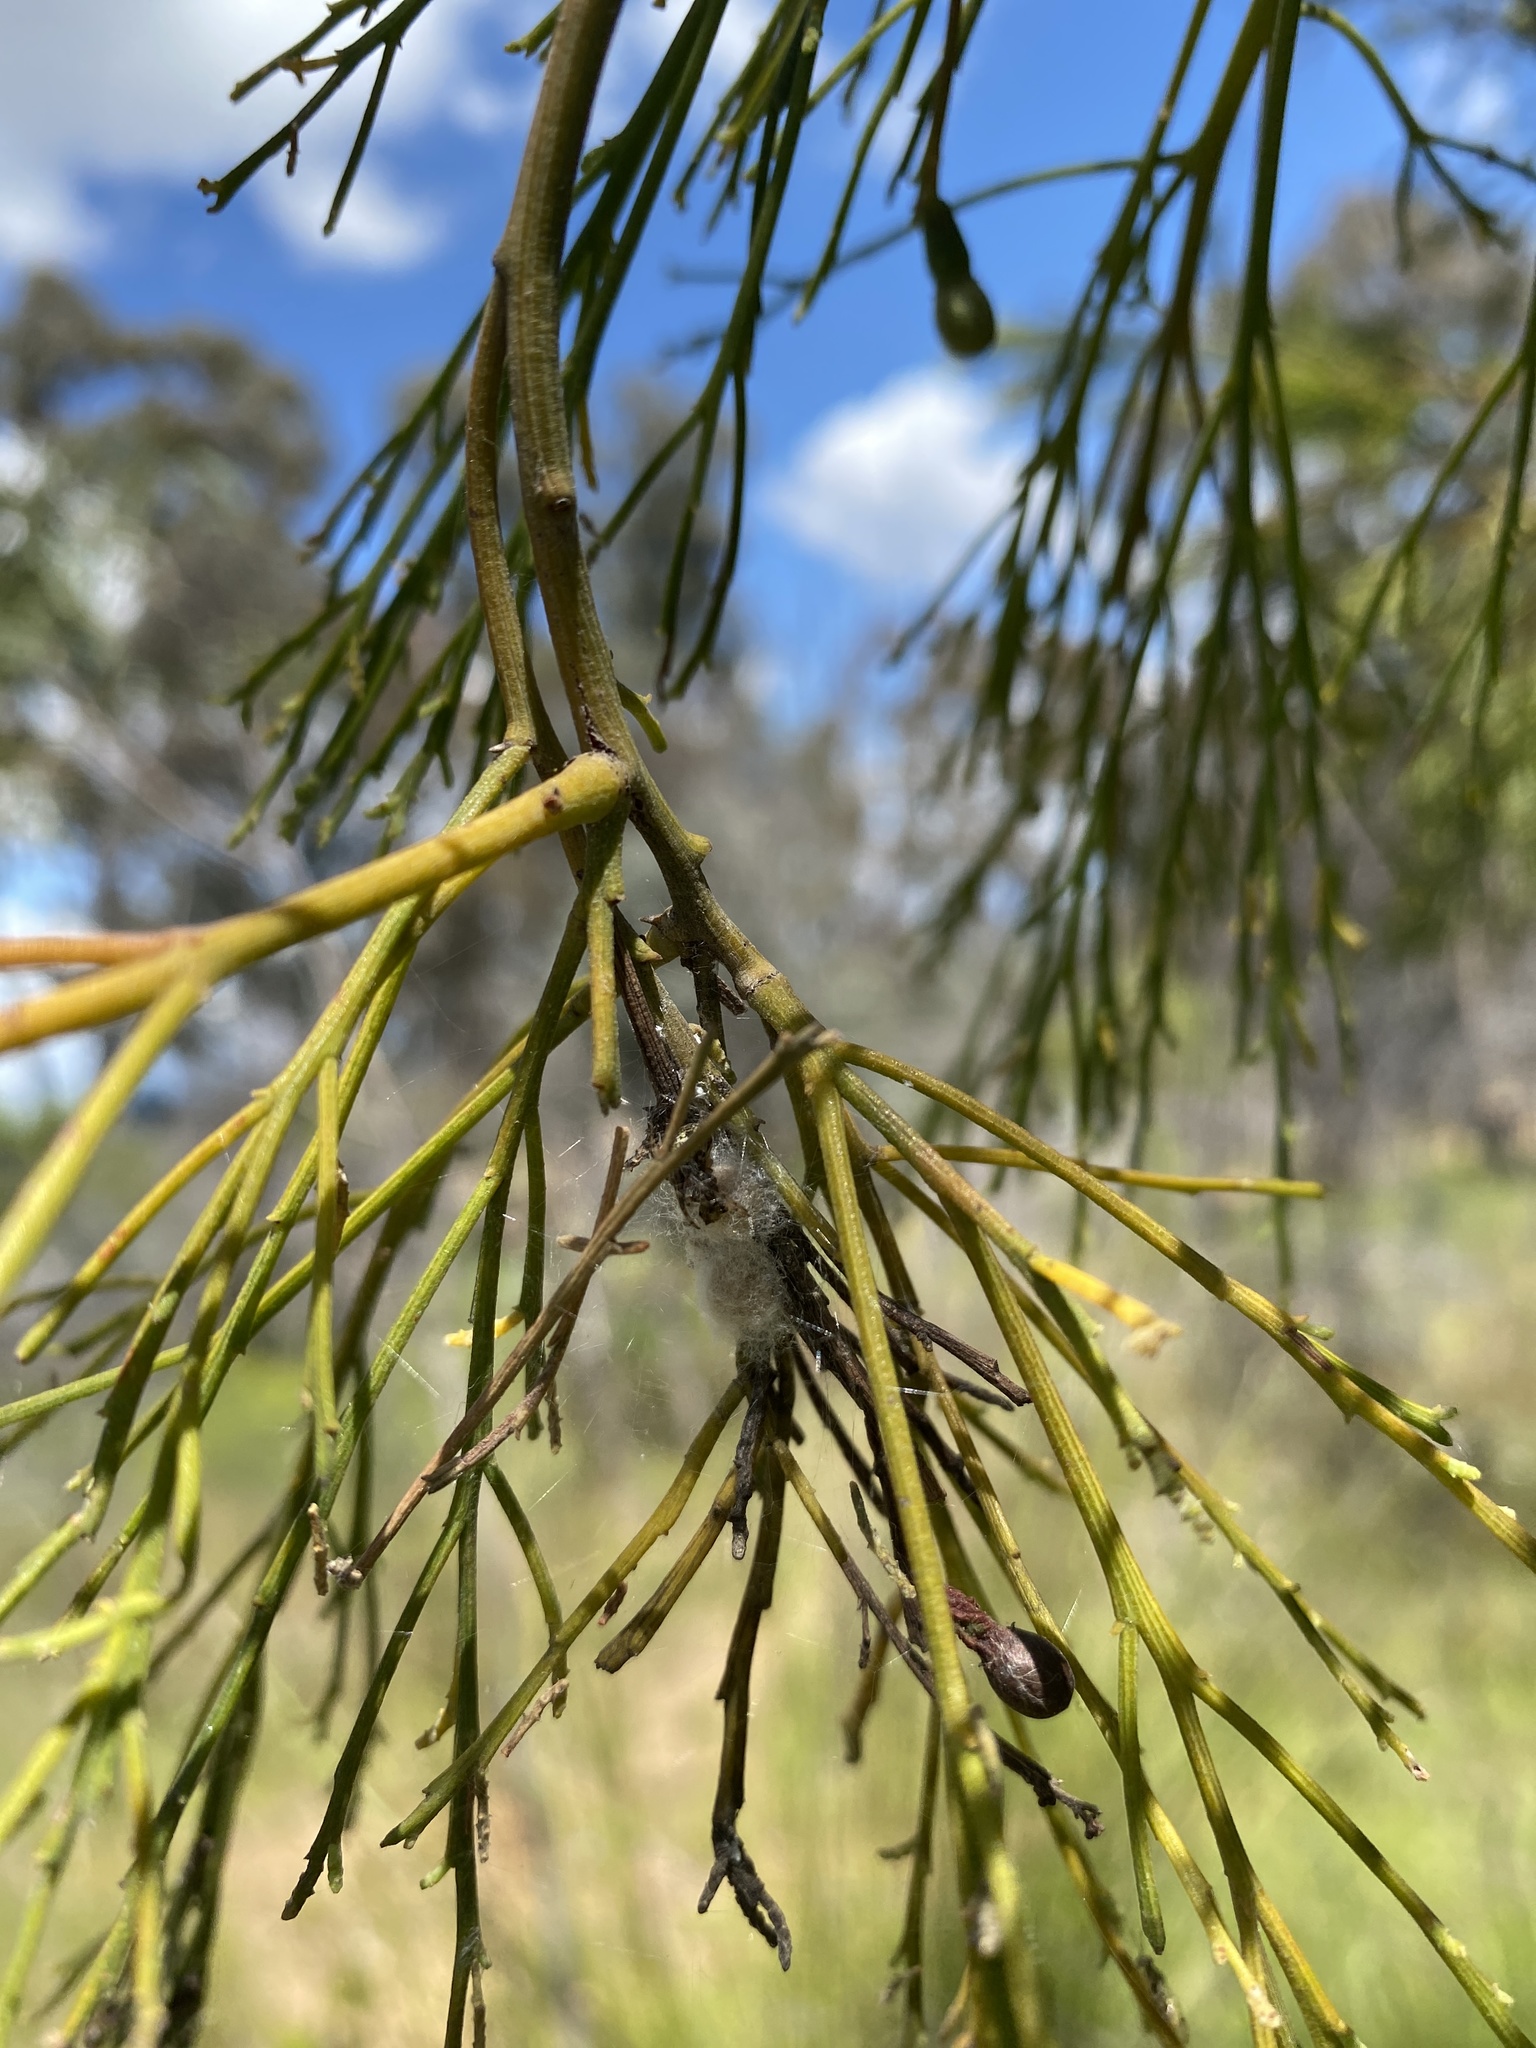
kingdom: Plantae
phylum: Tracheophyta
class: Magnoliopsida
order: Santalales
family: Santalaceae
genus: Exocarpos
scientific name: Exocarpos cupressiformis
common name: Cherry ballart
